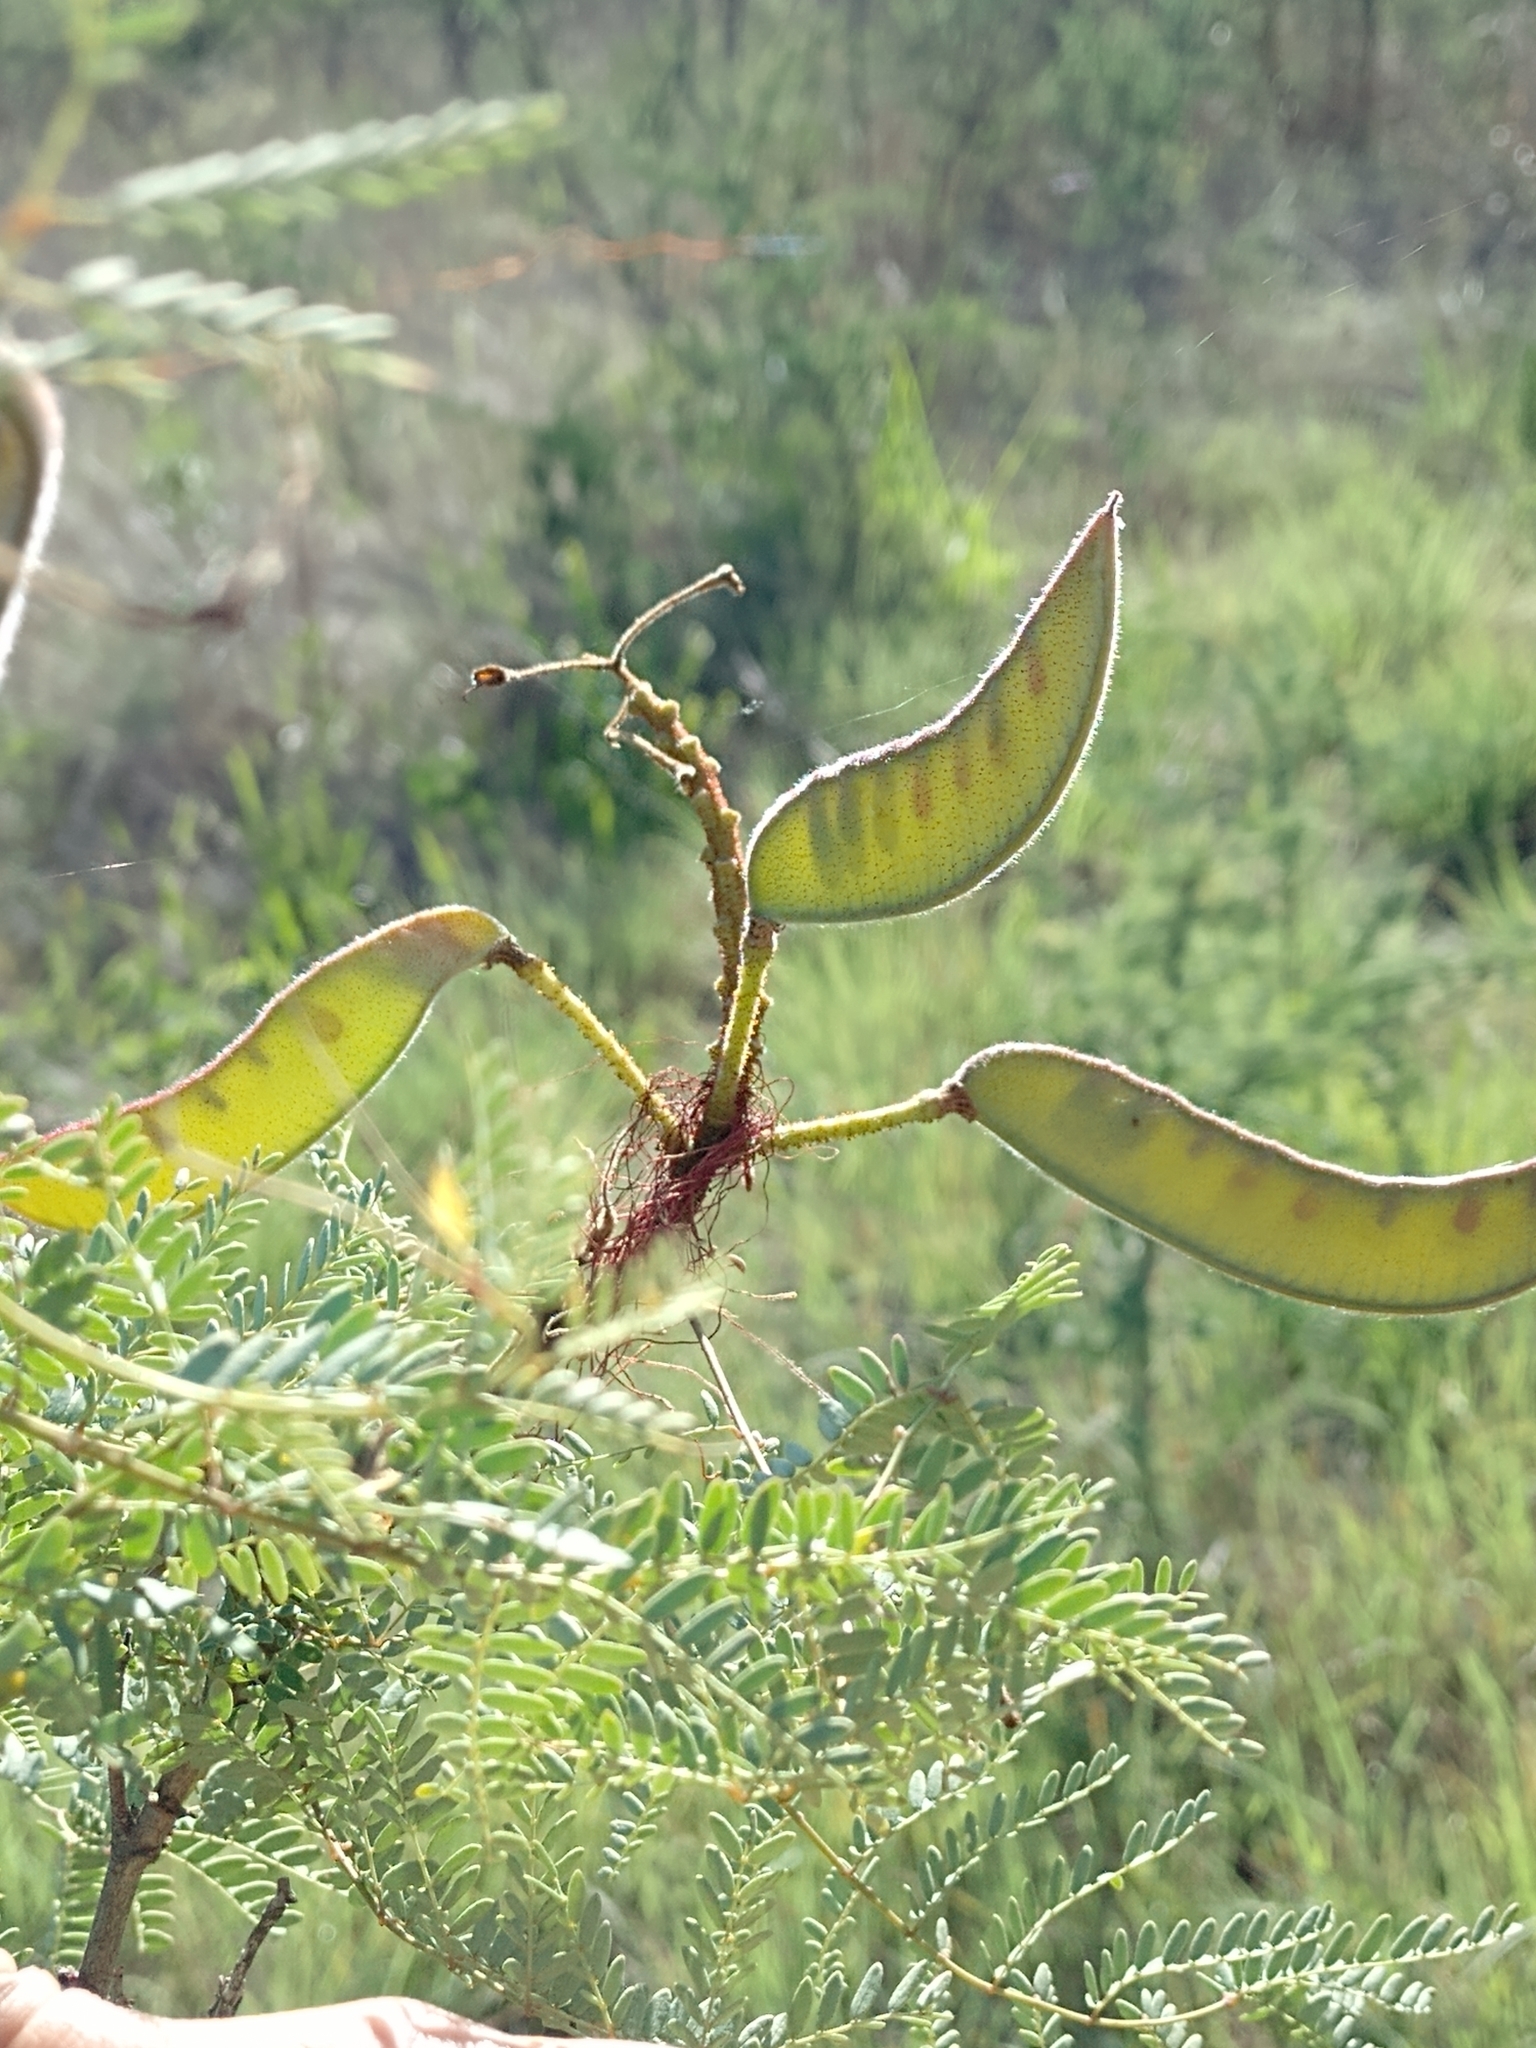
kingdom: Plantae
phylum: Tracheophyta
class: Magnoliopsida
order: Fabales
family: Fabaceae
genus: Erythrostemon
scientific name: Erythrostemon gilliesii
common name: Bird-of-paradise shrub
